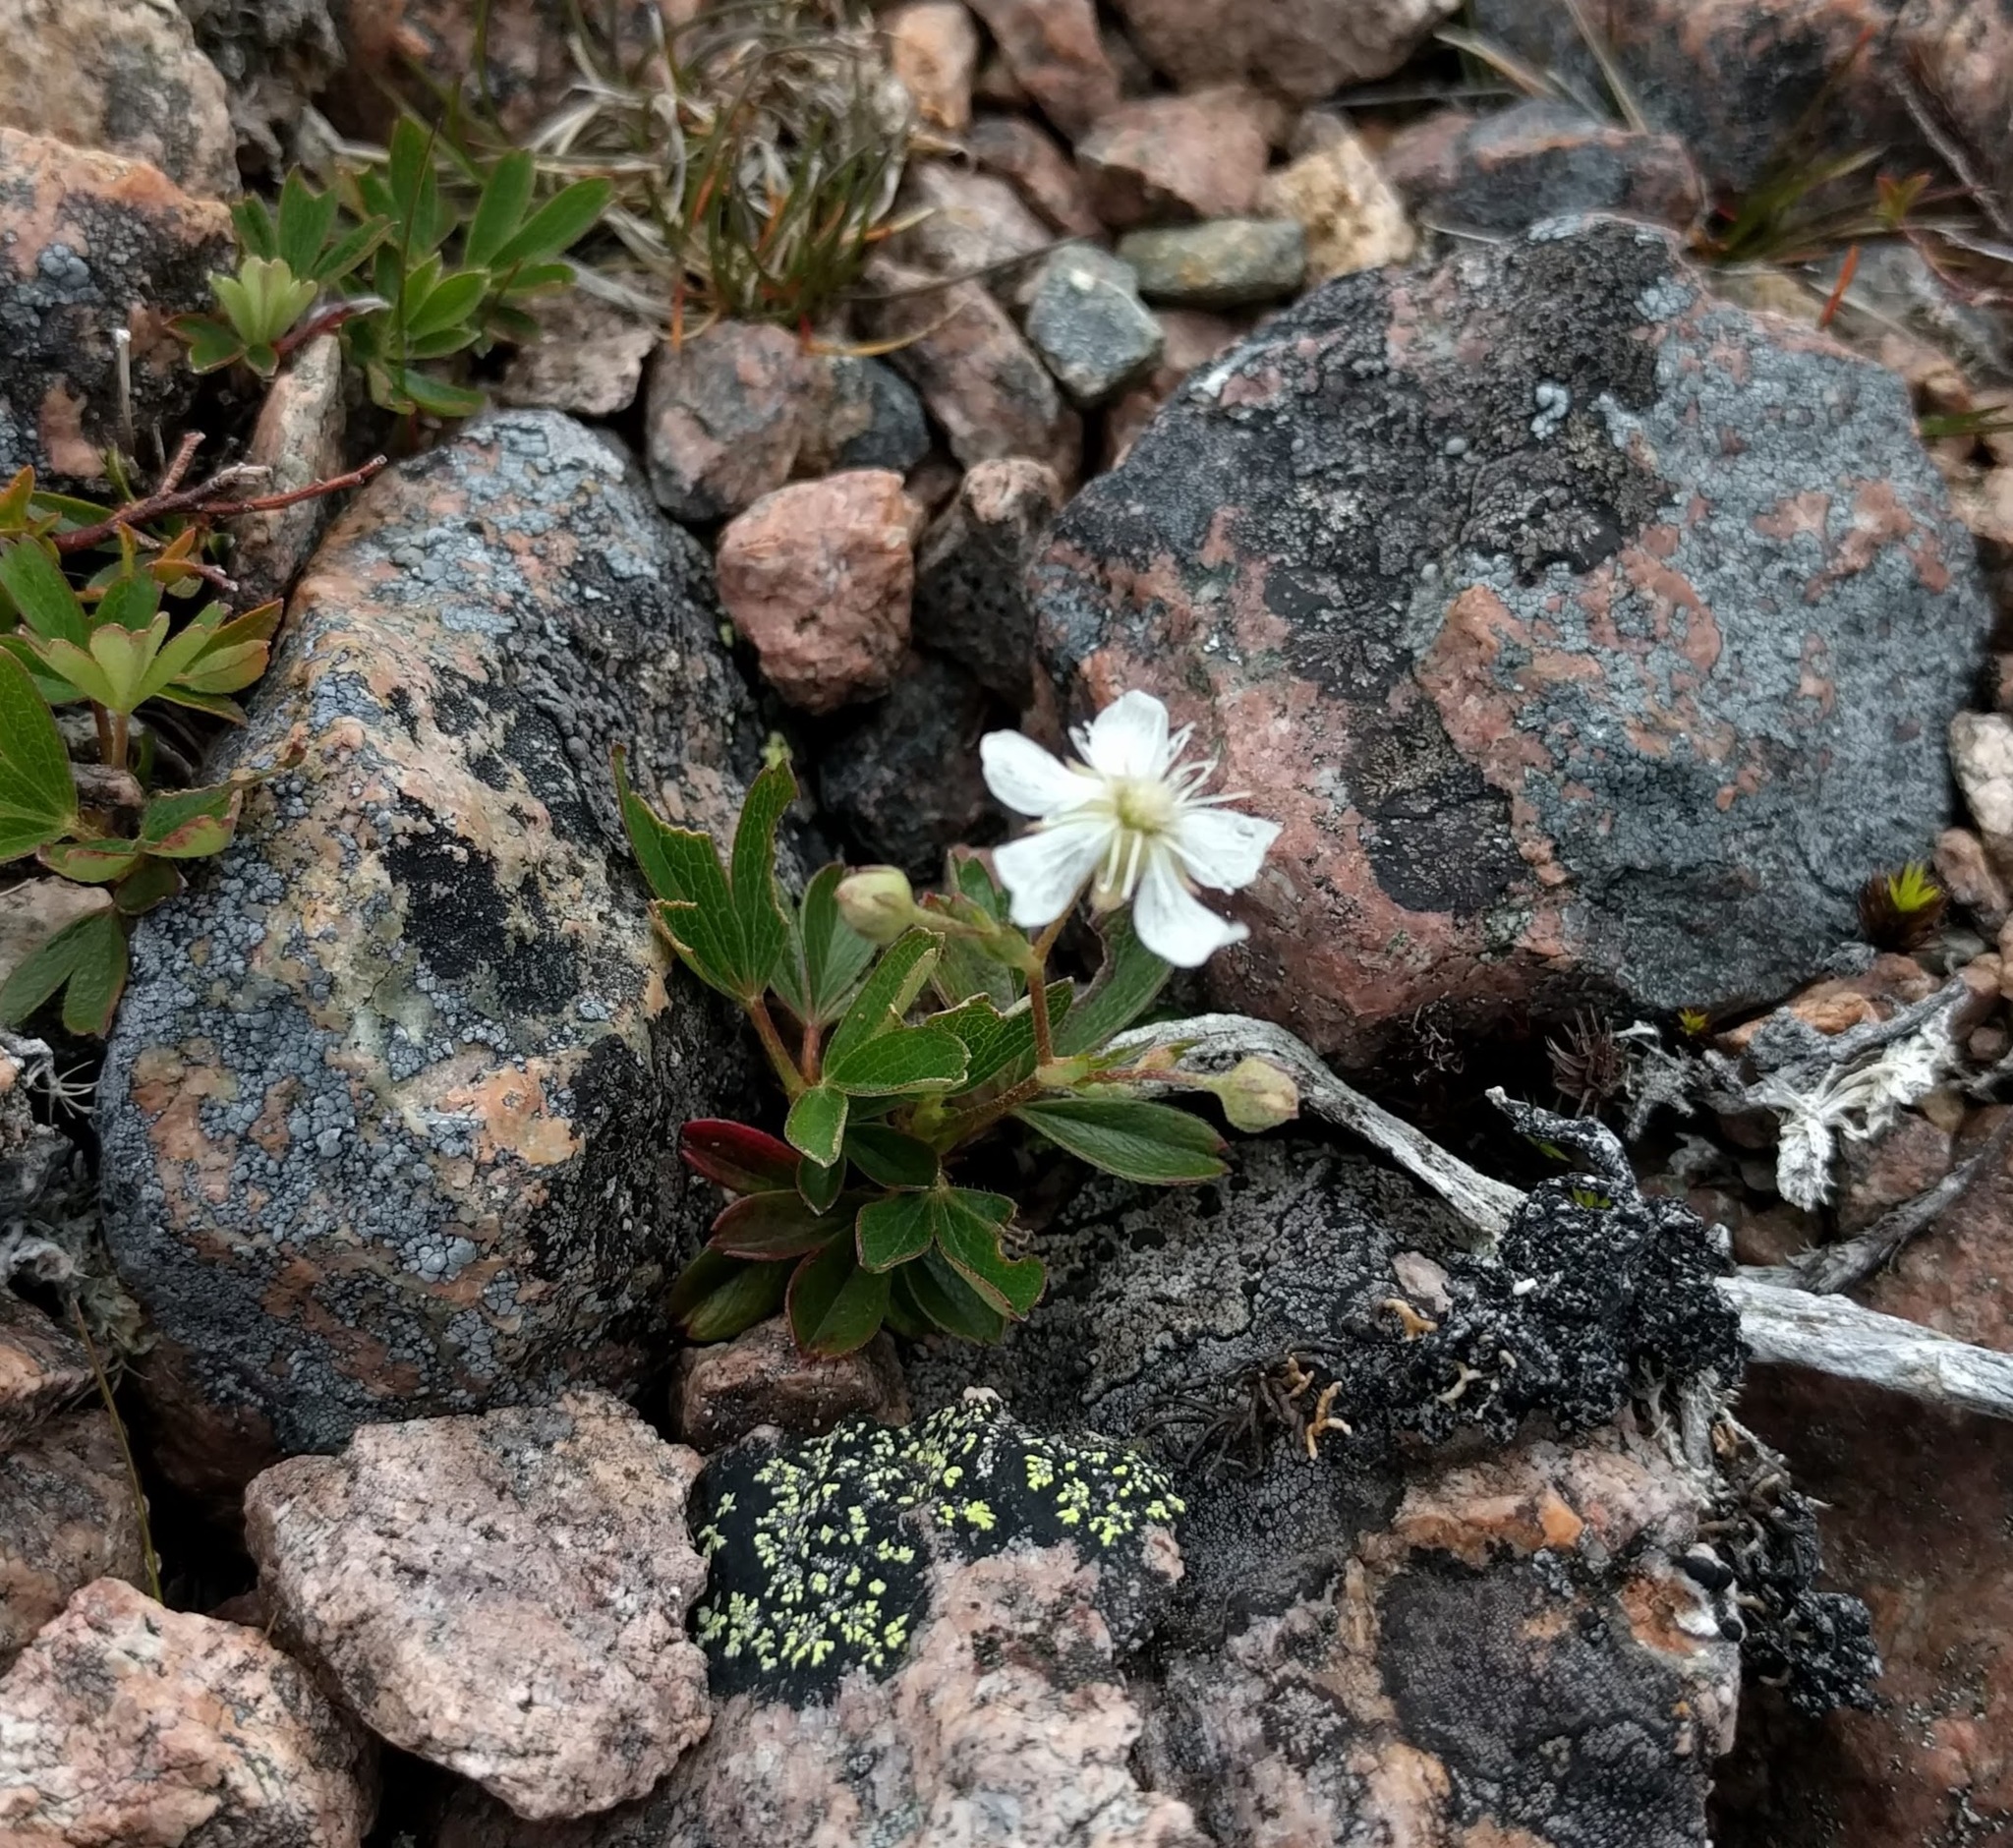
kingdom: Plantae
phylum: Tracheophyta
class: Magnoliopsida
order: Rosales
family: Rosaceae
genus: Sibbaldia
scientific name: Sibbaldia tridentata
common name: Three-toothed cinquefoil
